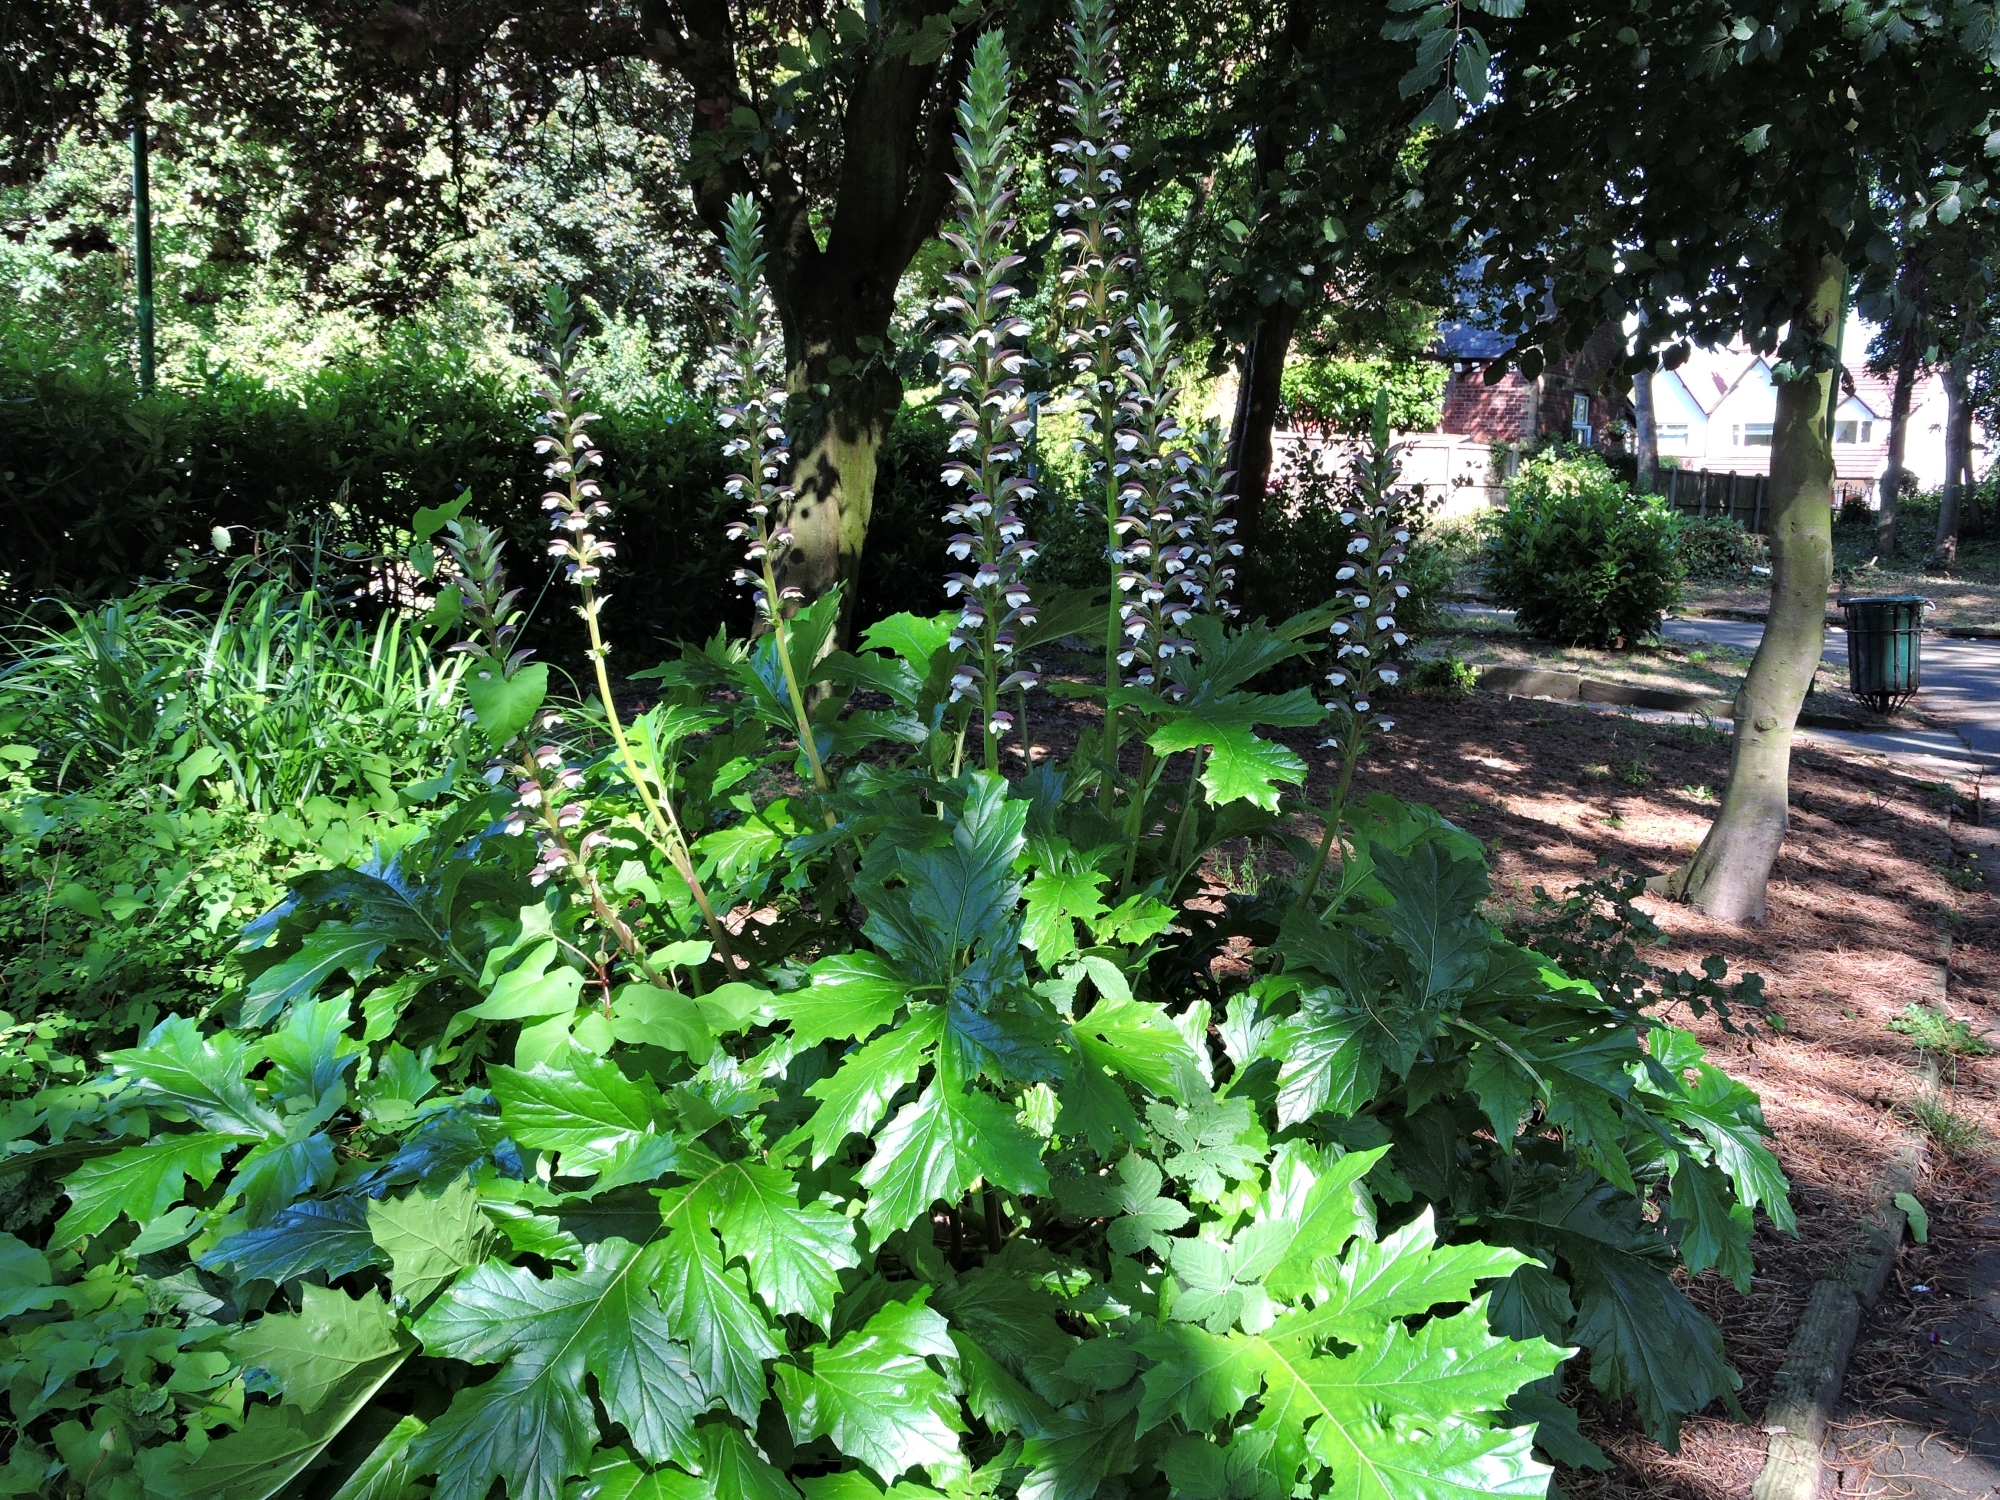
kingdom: Plantae
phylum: Tracheophyta
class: Magnoliopsida
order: Lamiales
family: Acanthaceae
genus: Acanthus
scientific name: Acanthus mollis
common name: Bear's-breech
